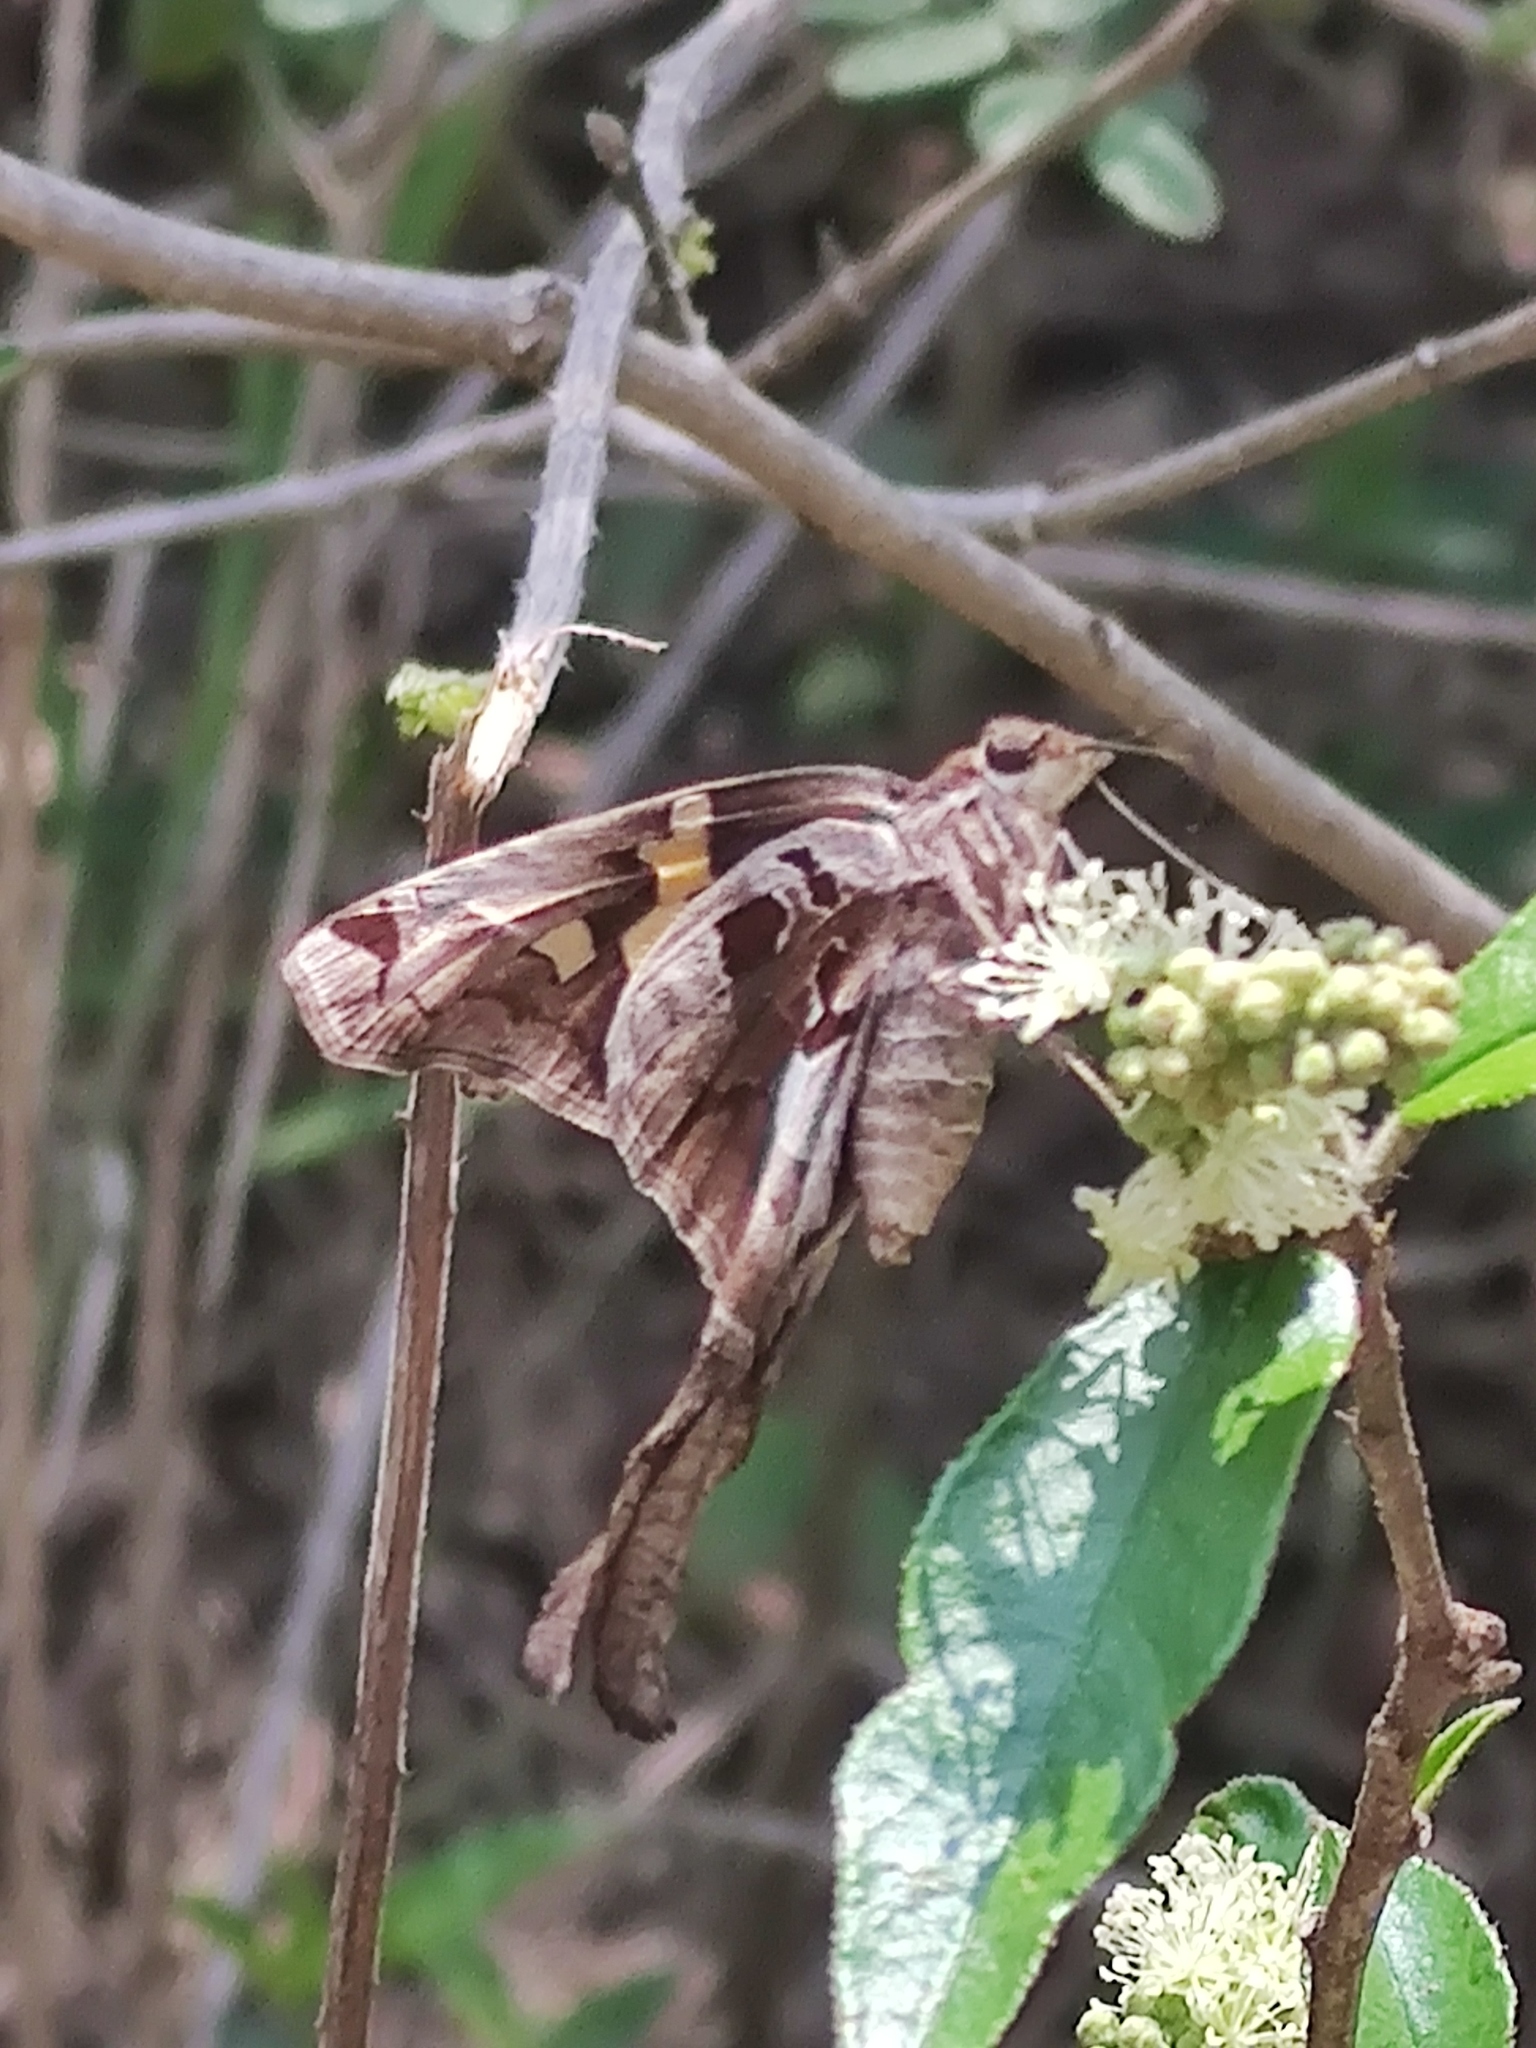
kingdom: Animalia
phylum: Arthropoda
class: Insecta
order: Lepidoptera
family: Hesperiidae
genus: Chioides
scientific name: Chioides zilpa
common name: Zilpa longtail
